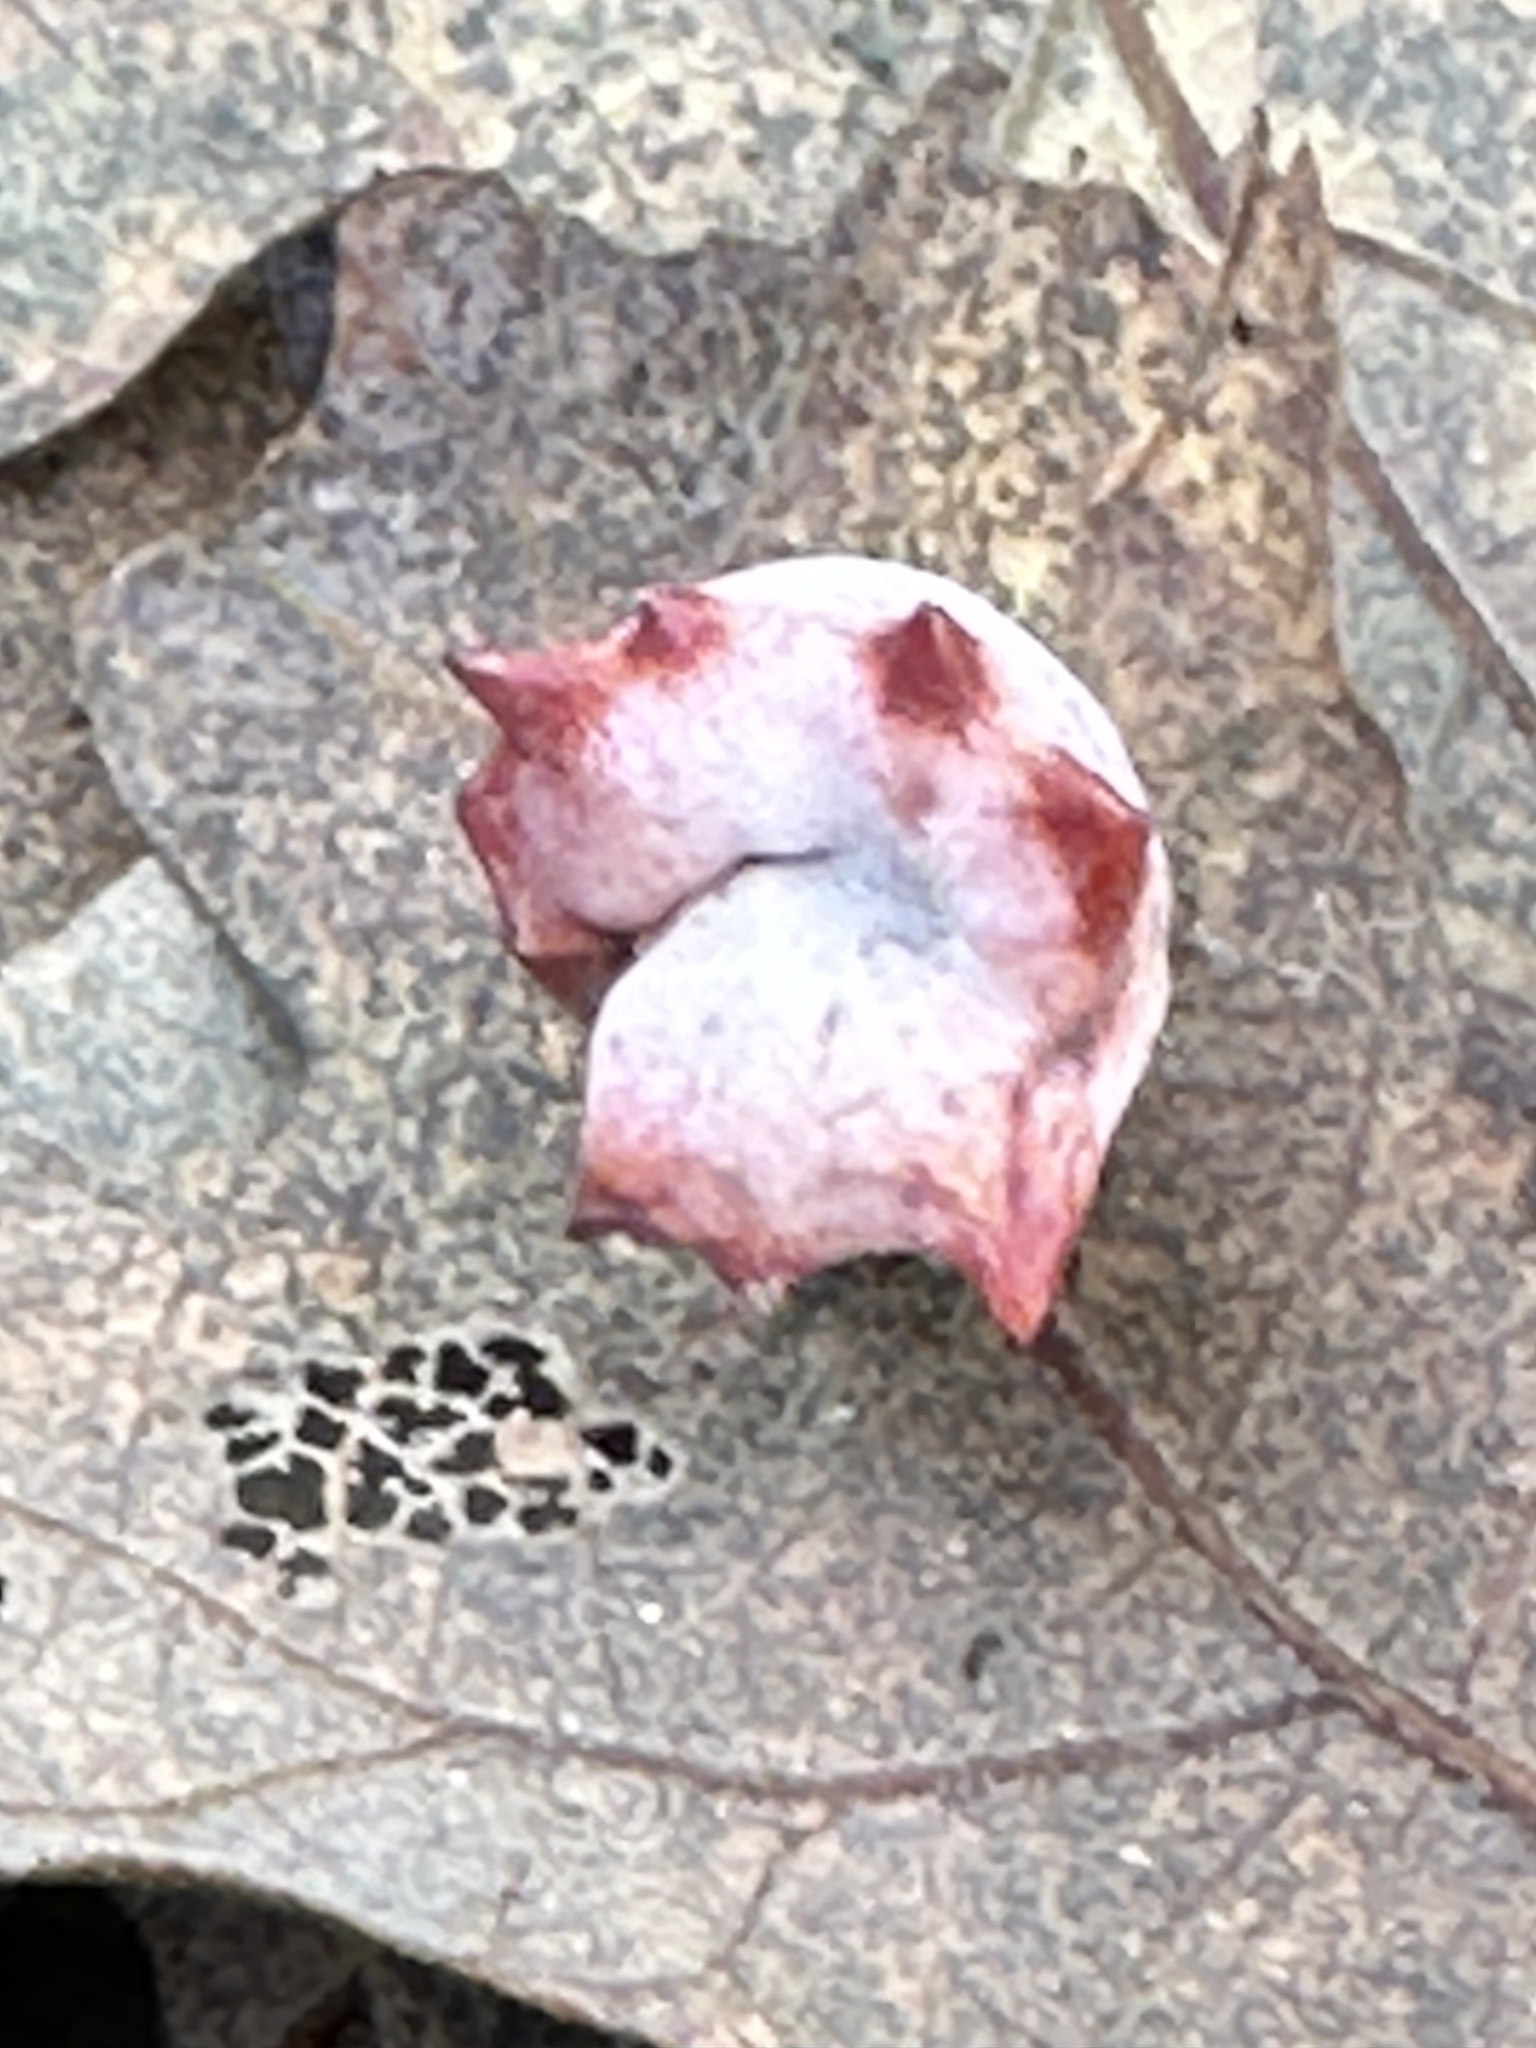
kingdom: Animalia
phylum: Arthropoda
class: Insecta
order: Hymenoptera
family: Cynipidae
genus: Cynips
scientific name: Cynips douglasi
